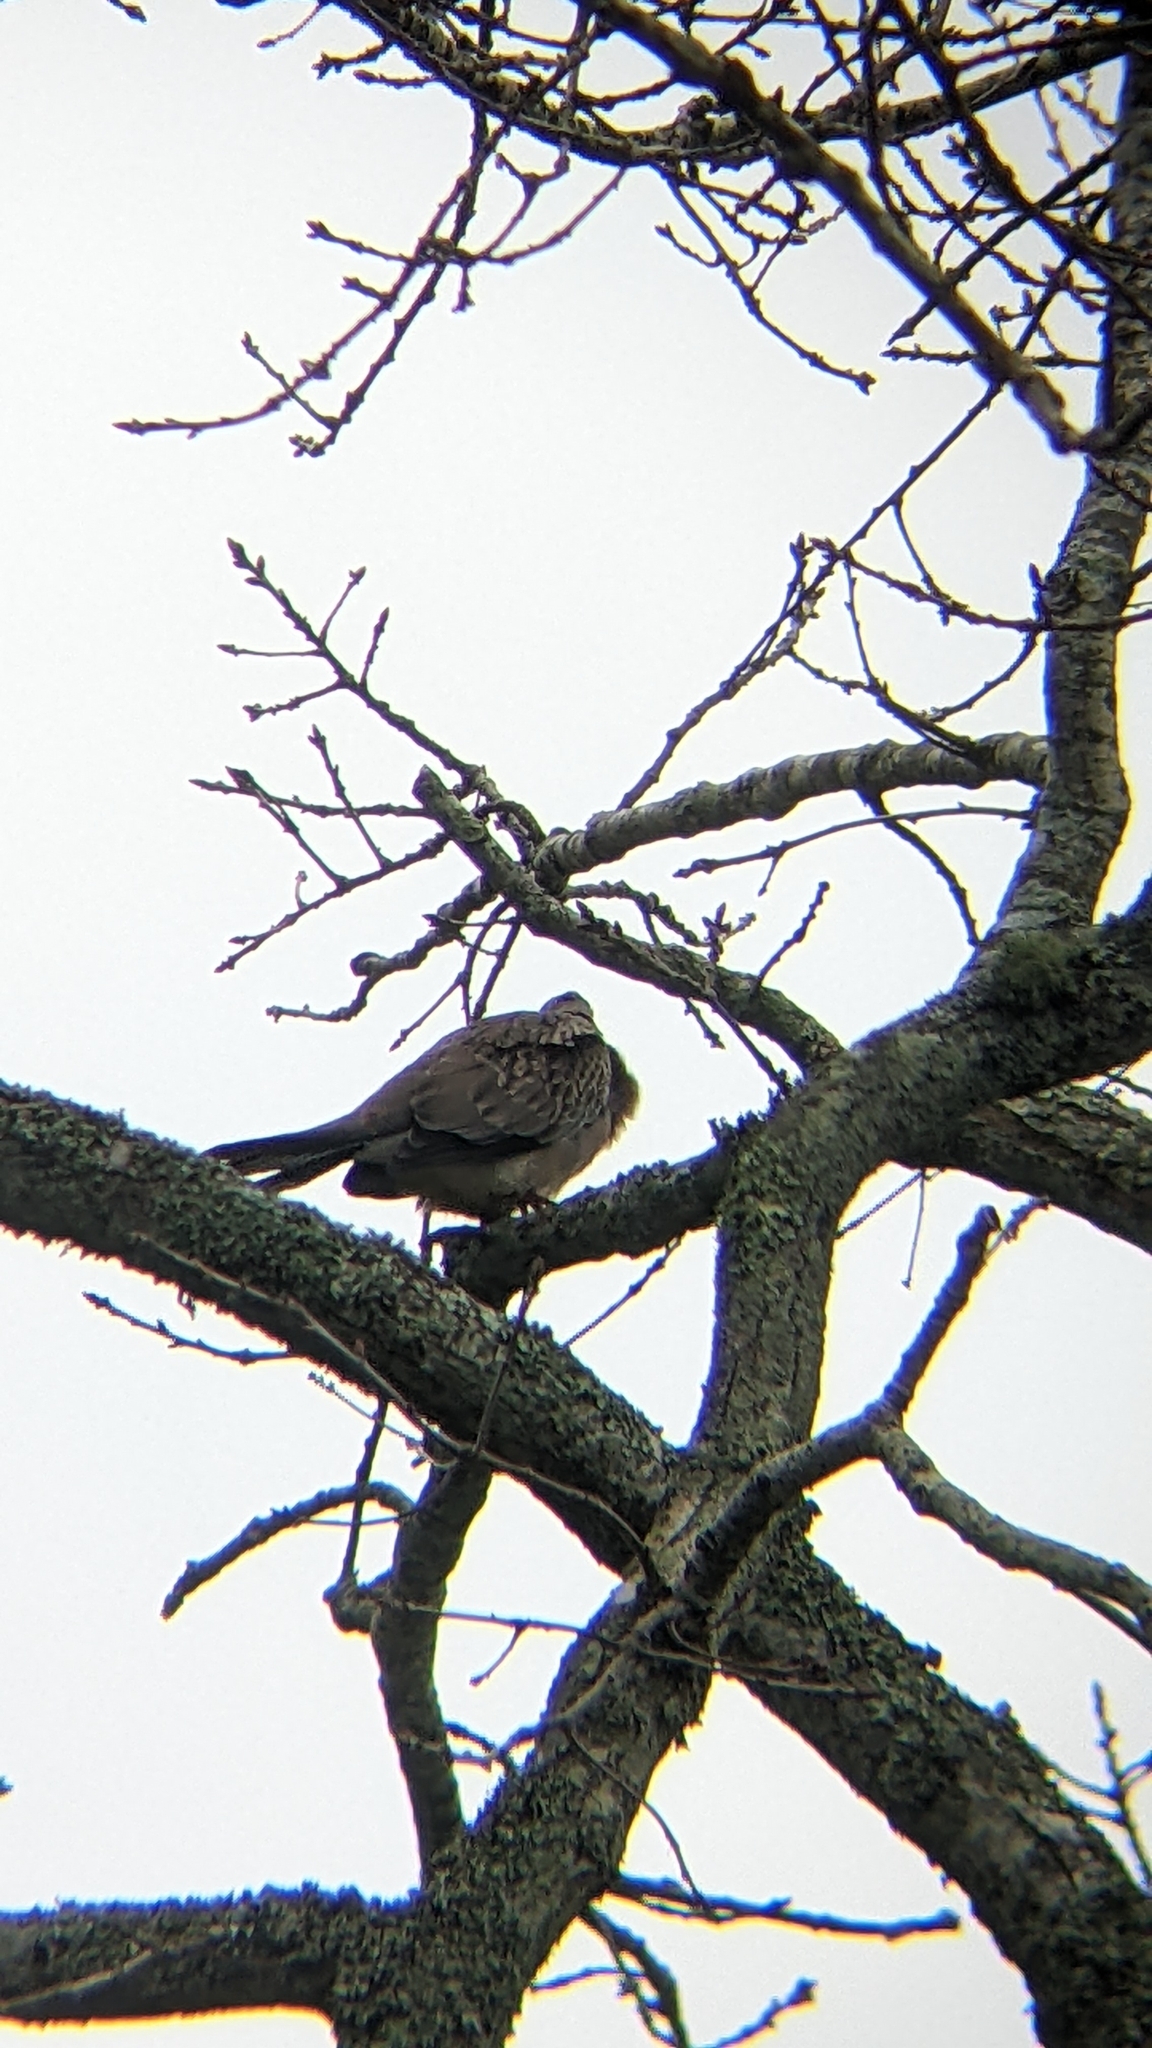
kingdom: Animalia
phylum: Chordata
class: Aves
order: Columbiformes
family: Columbidae
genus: Spilopelia
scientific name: Spilopelia chinensis
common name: Spotted dove
